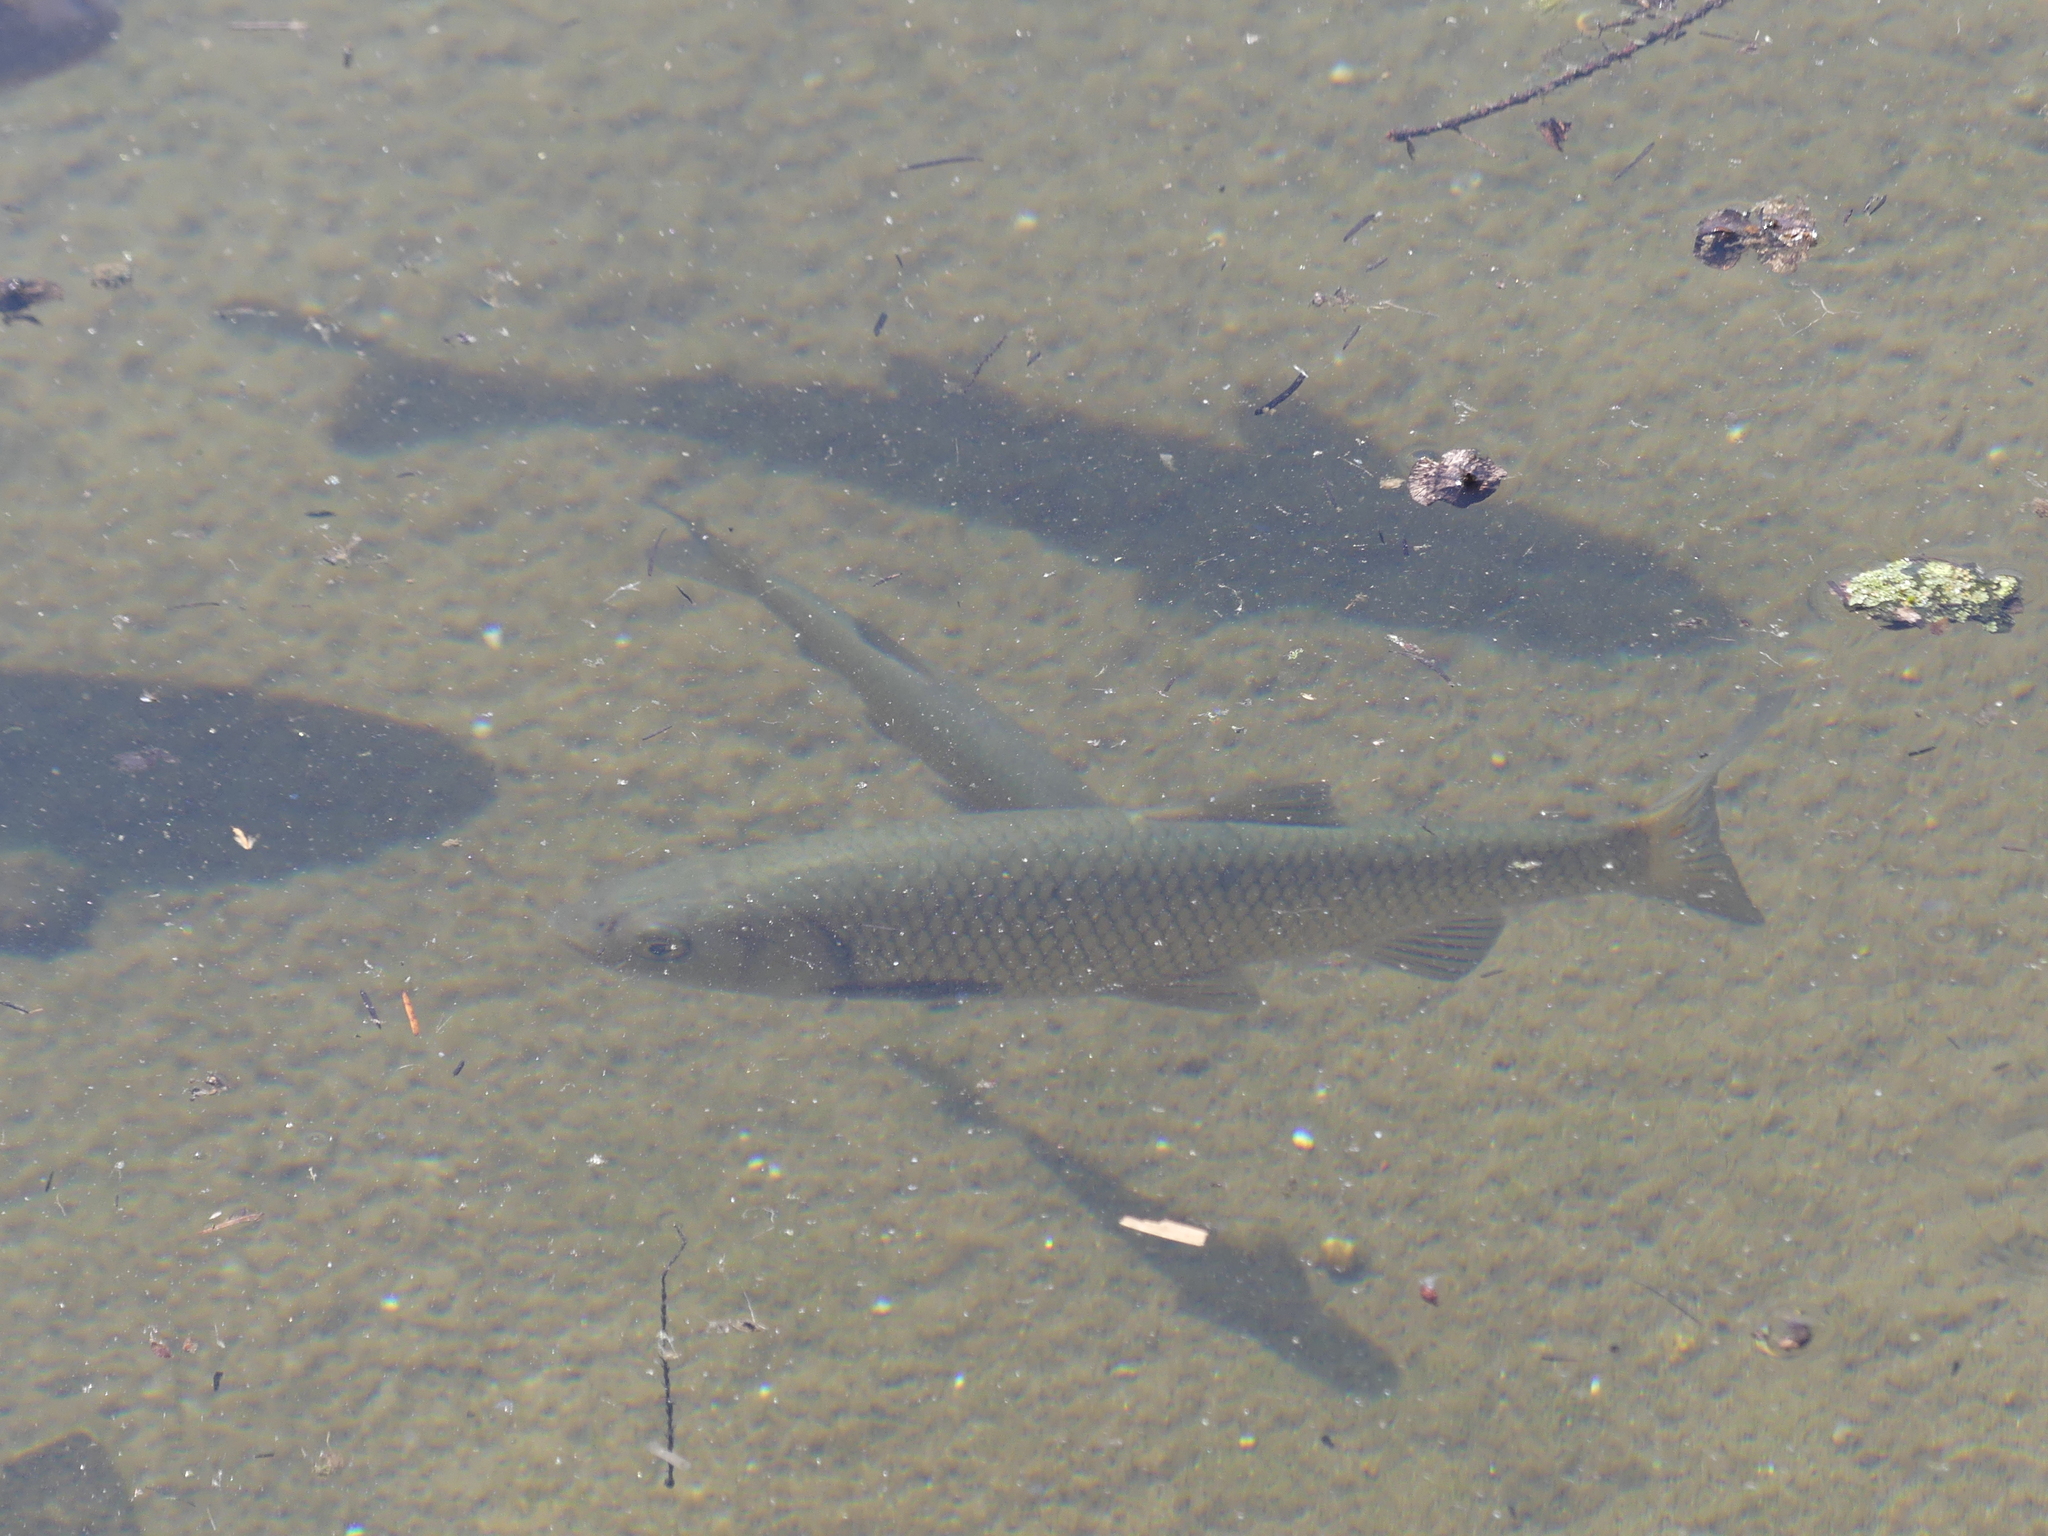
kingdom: Animalia
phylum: Chordata
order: Cypriniformes
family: Cyprinidae
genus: Squalius
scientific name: Squalius squalus
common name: Italian chub
